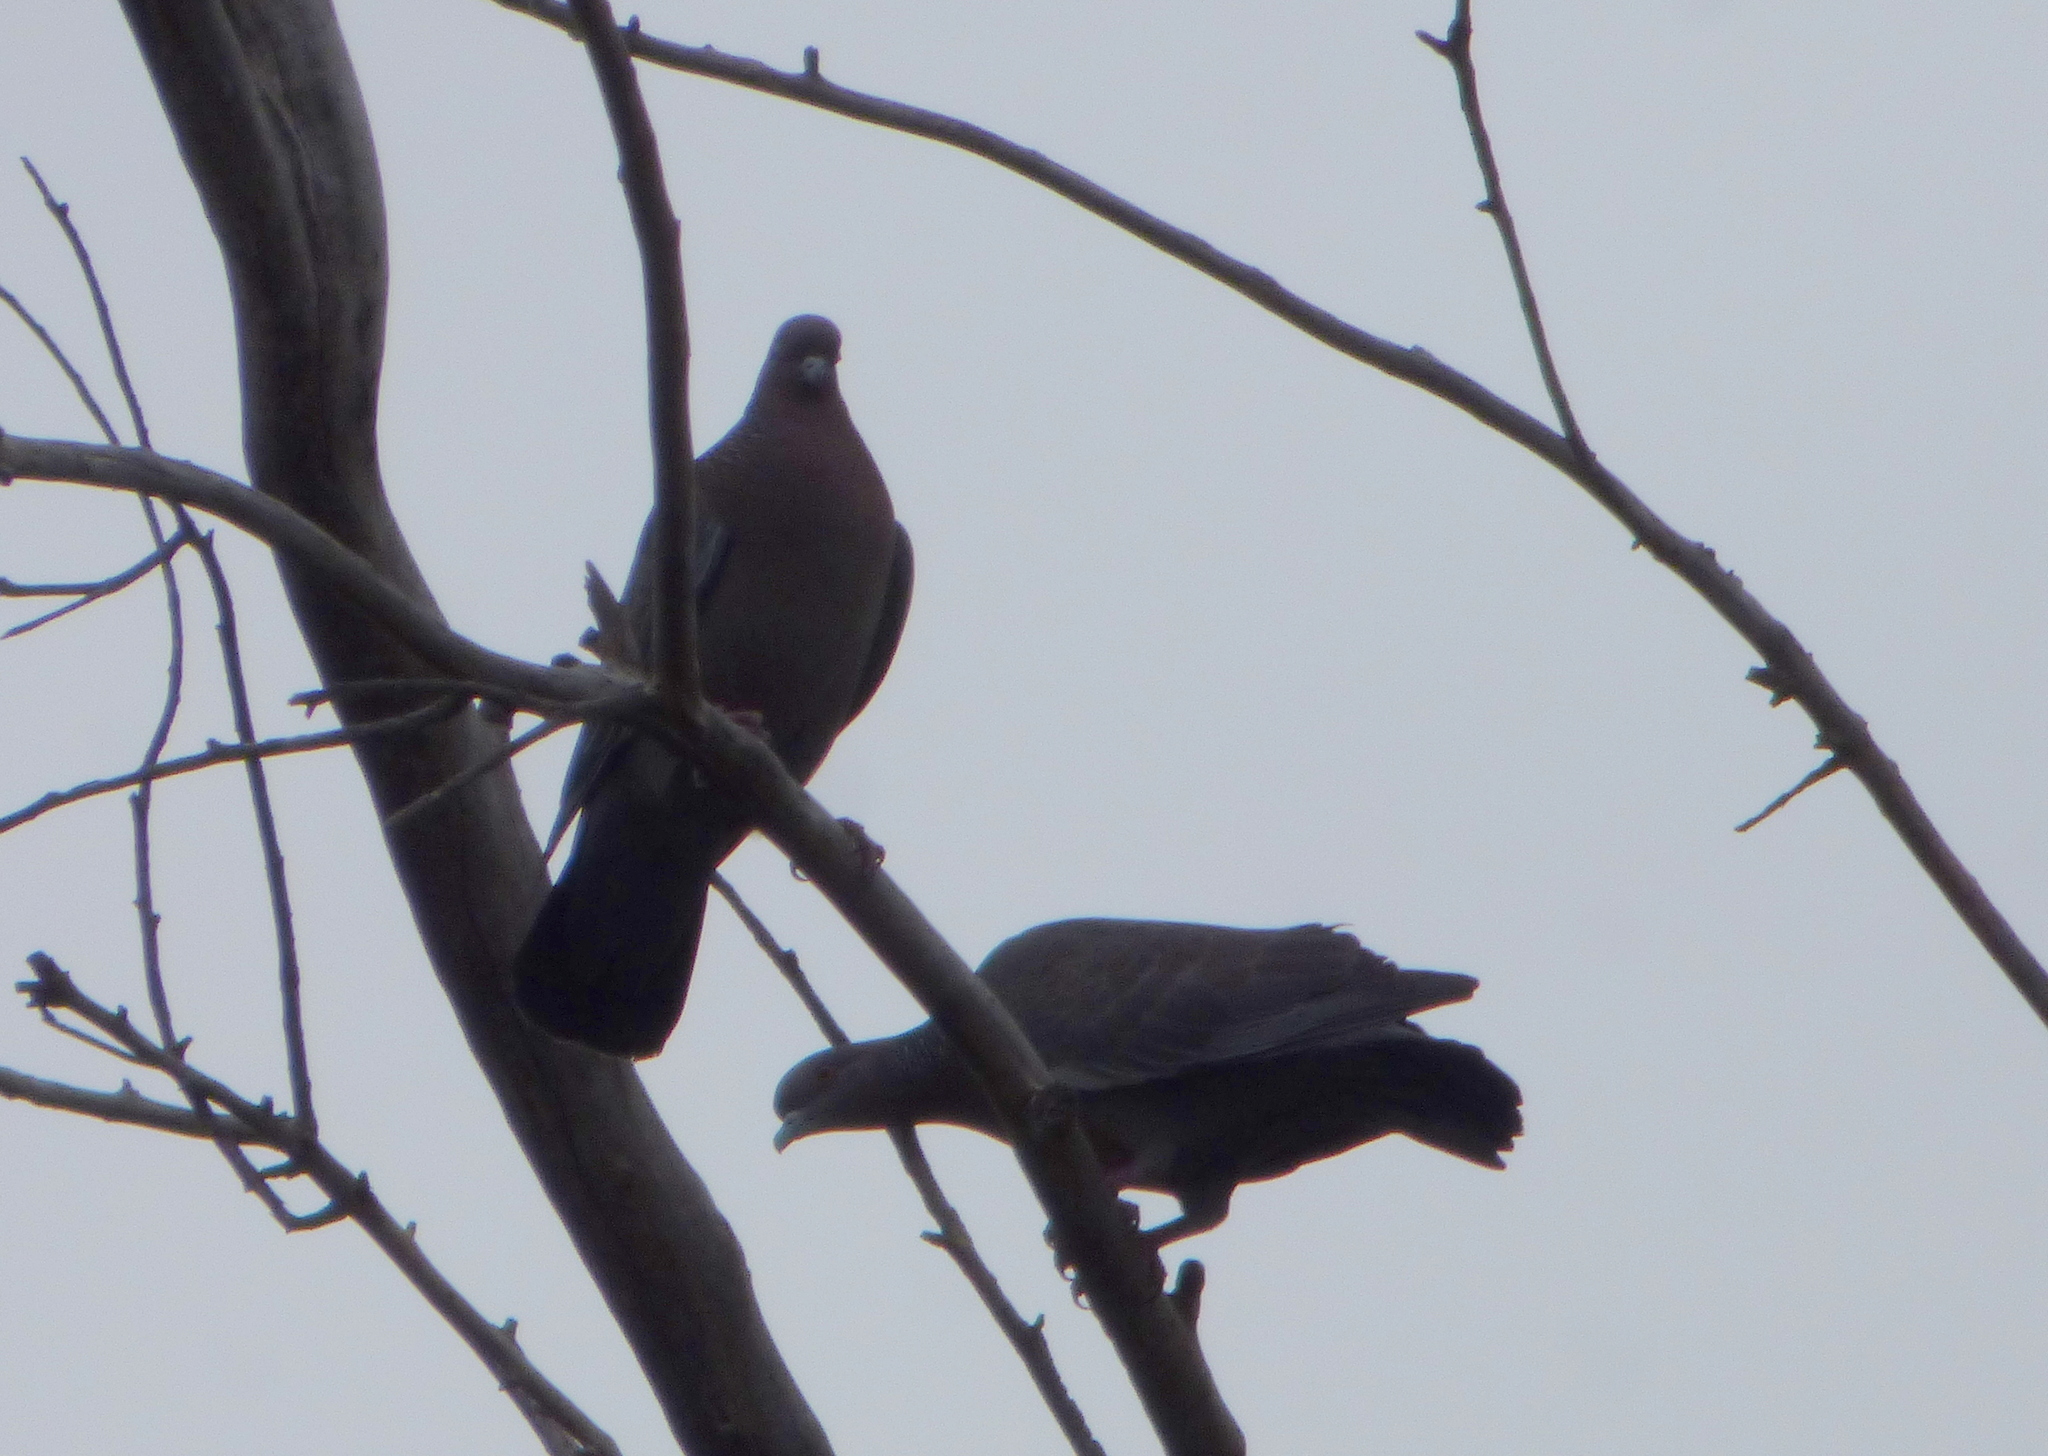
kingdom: Animalia
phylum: Chordata
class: Aves
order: Columbiformes
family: Columbidae
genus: Patagioenas
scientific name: Patagioenas picazuro
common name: Picazuro pigeon
